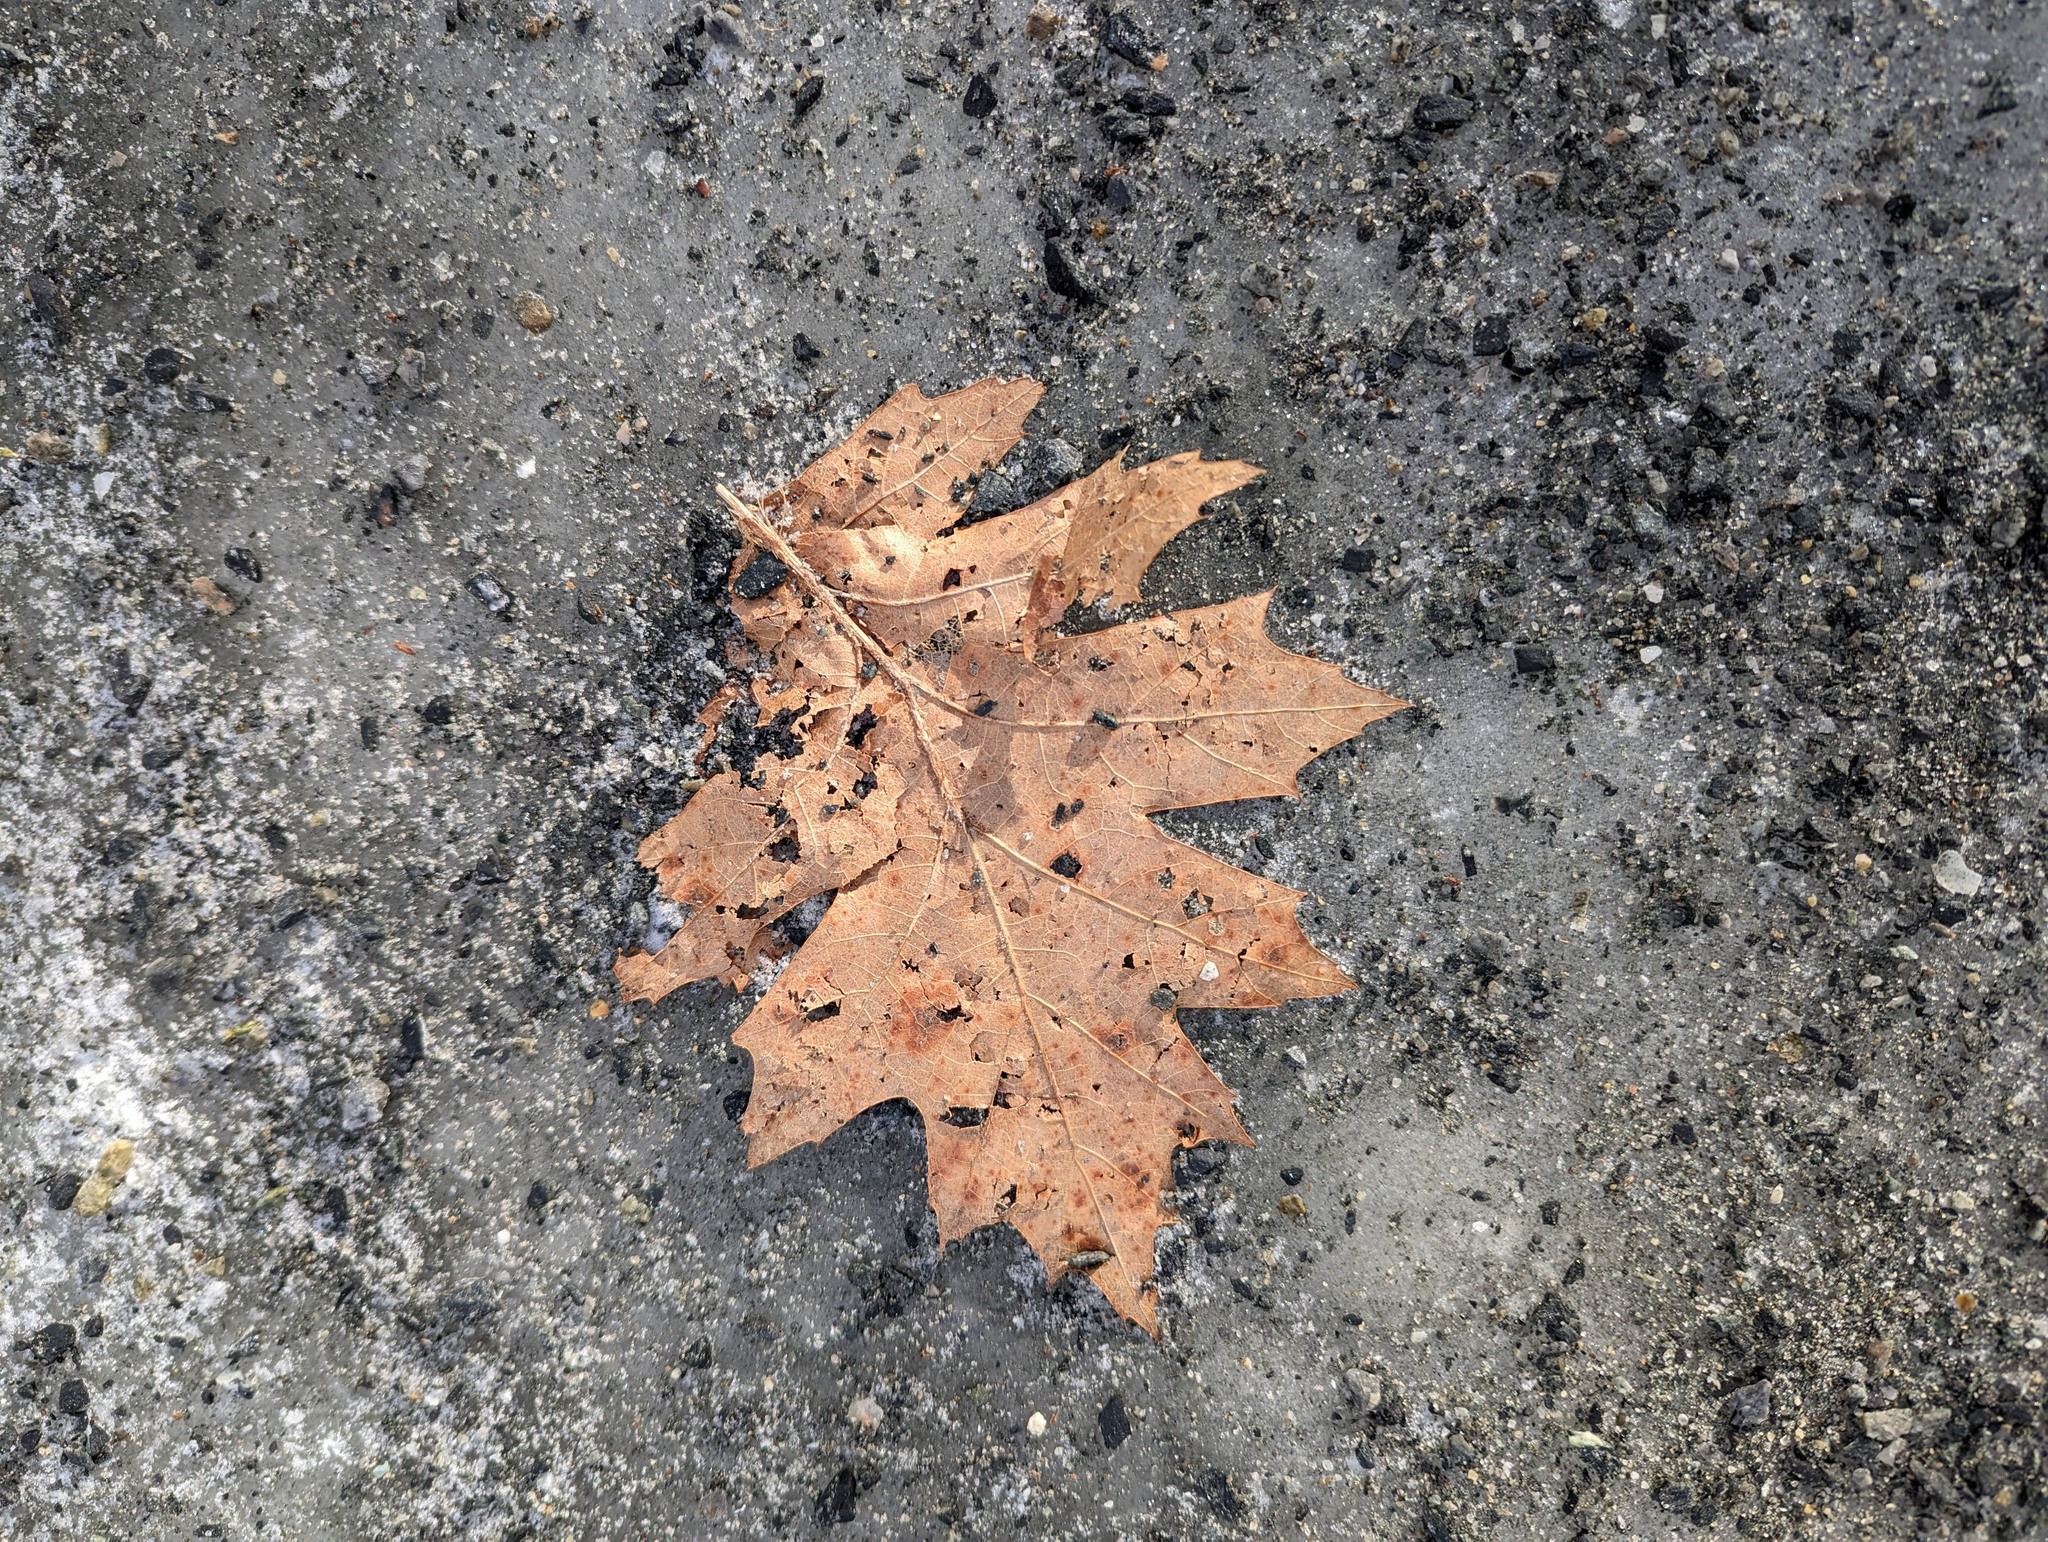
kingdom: Plantae
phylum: Tracheophyta
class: Magnoliopsida
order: Fagales
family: Fagaceae
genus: Quercus
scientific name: Quercus rubra
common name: Red oak
